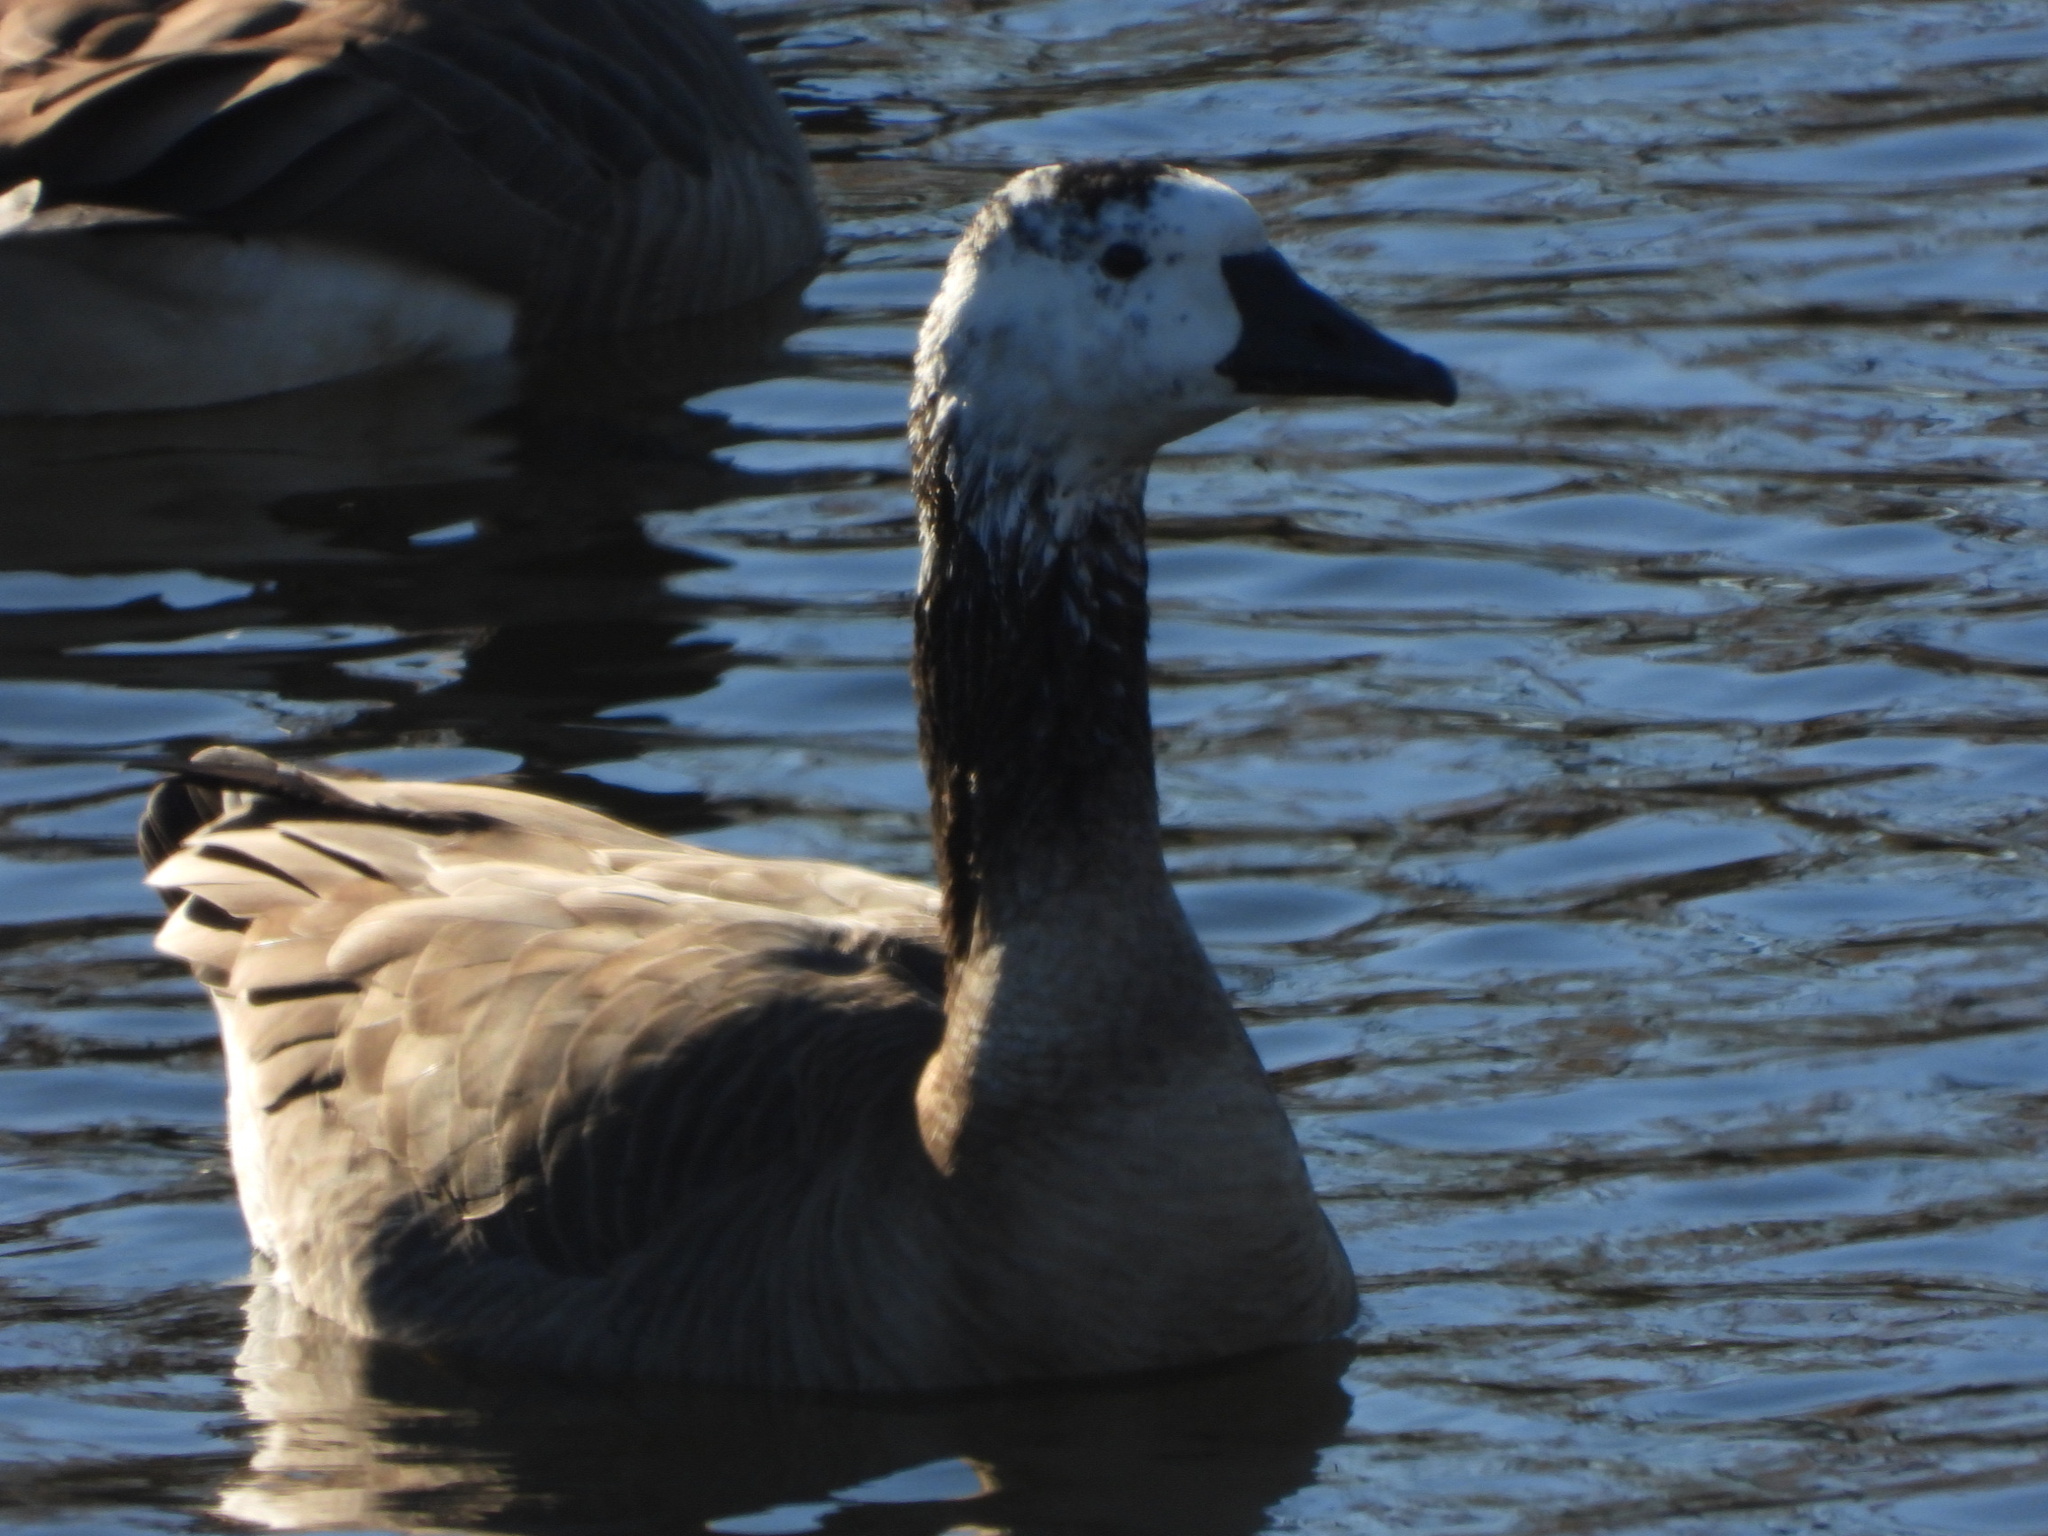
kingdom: Animalia
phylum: Chordata
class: Aves
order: Anseriformes
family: Anatidae
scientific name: Anatidae
